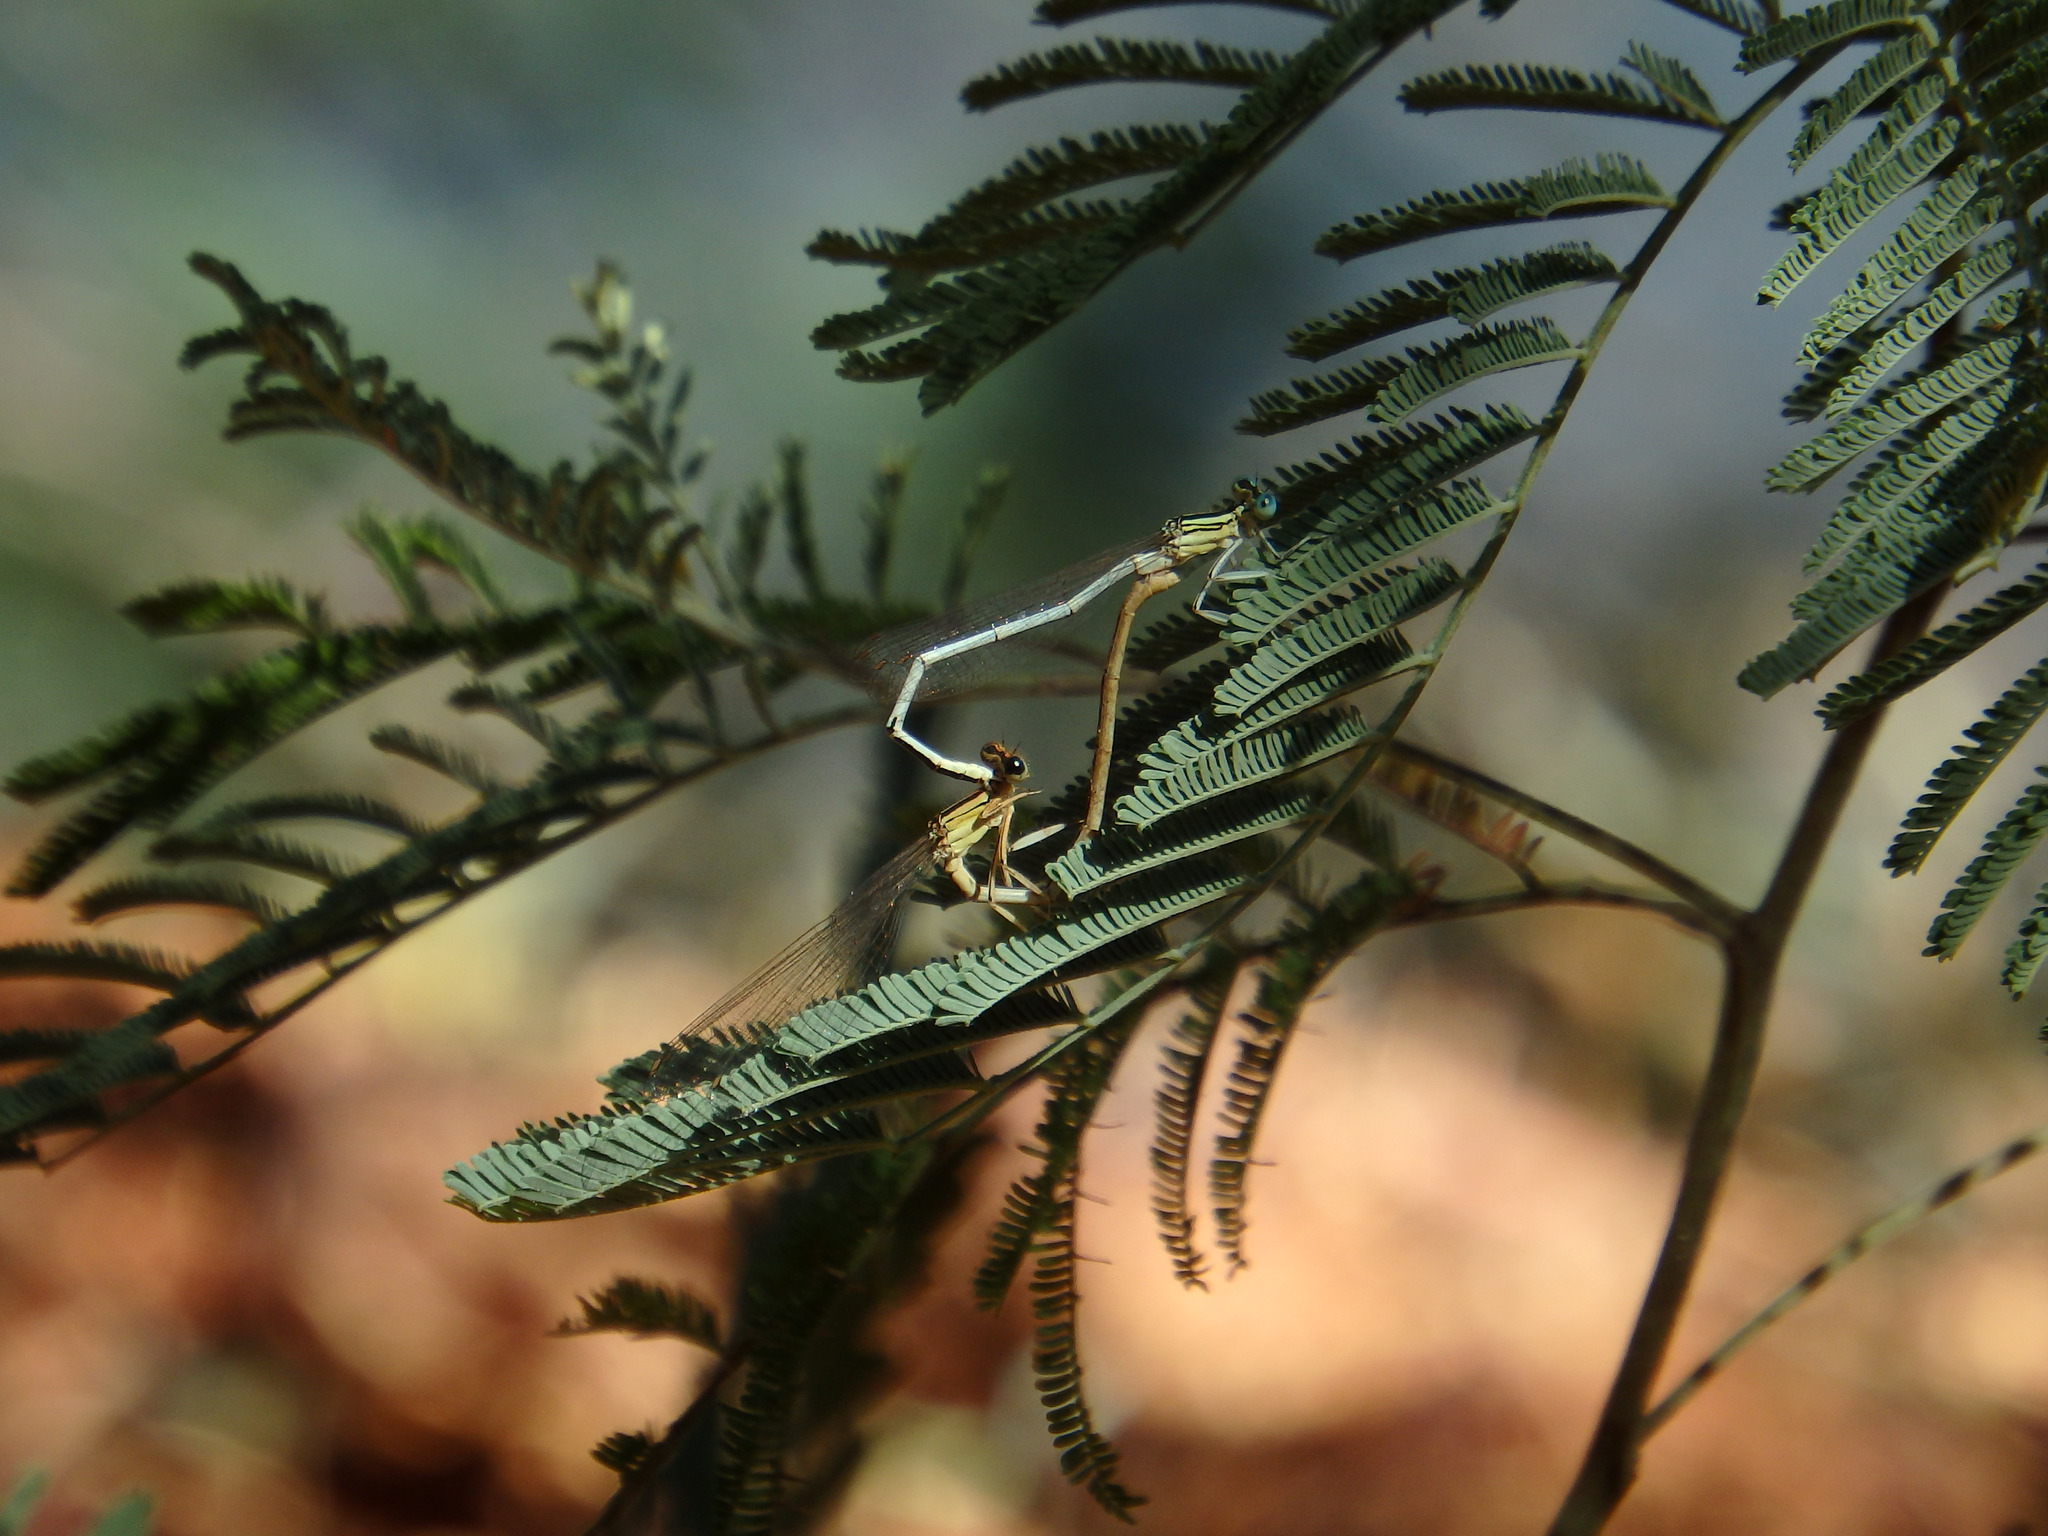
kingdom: Animalia
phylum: Arthropoda
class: Insecta
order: Odonata
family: Platycnemididae
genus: Platycnemis
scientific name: Platycnemis latipes
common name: White featherleg
